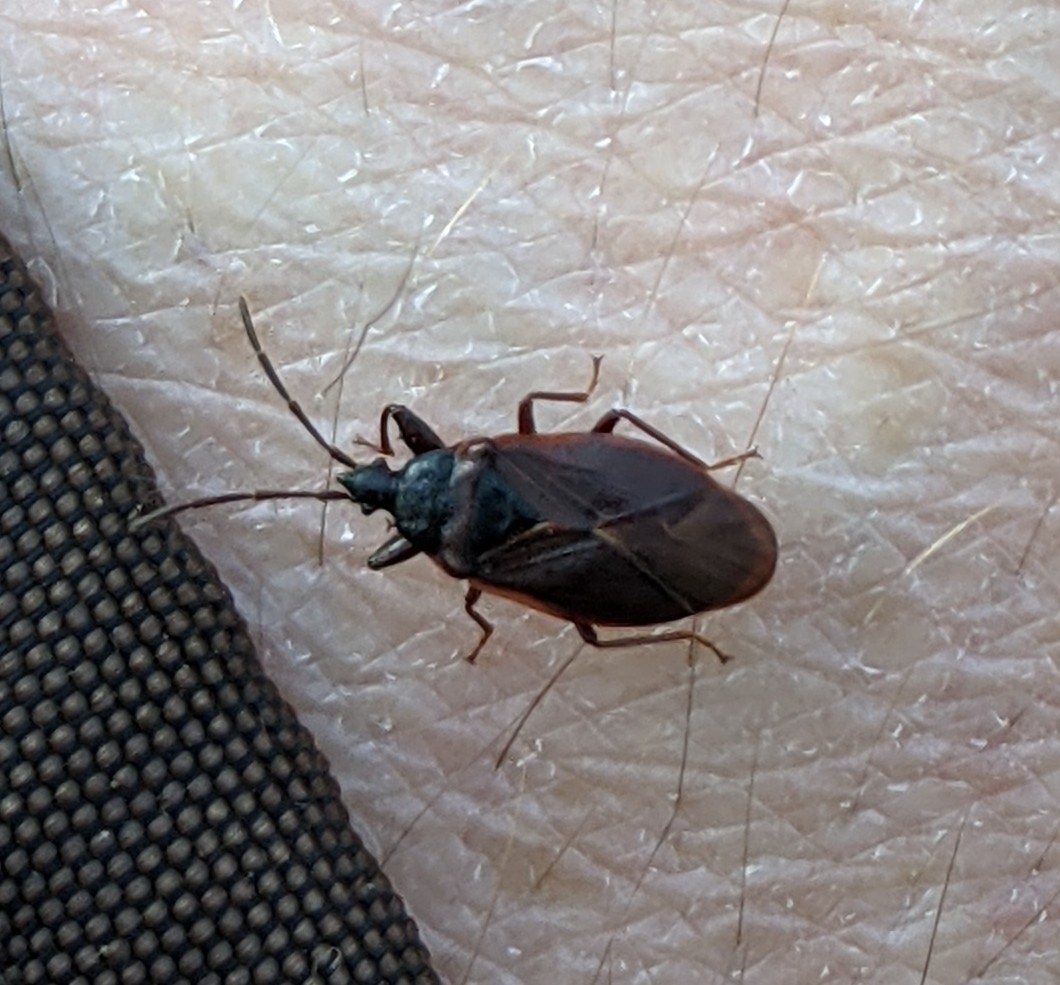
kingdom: Animalia
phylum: Arthropoda
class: Insecta
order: Hemiptera
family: Rhyparochromidae
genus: Gastrodes
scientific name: Gastrodes grossipes
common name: Pine cone bug
